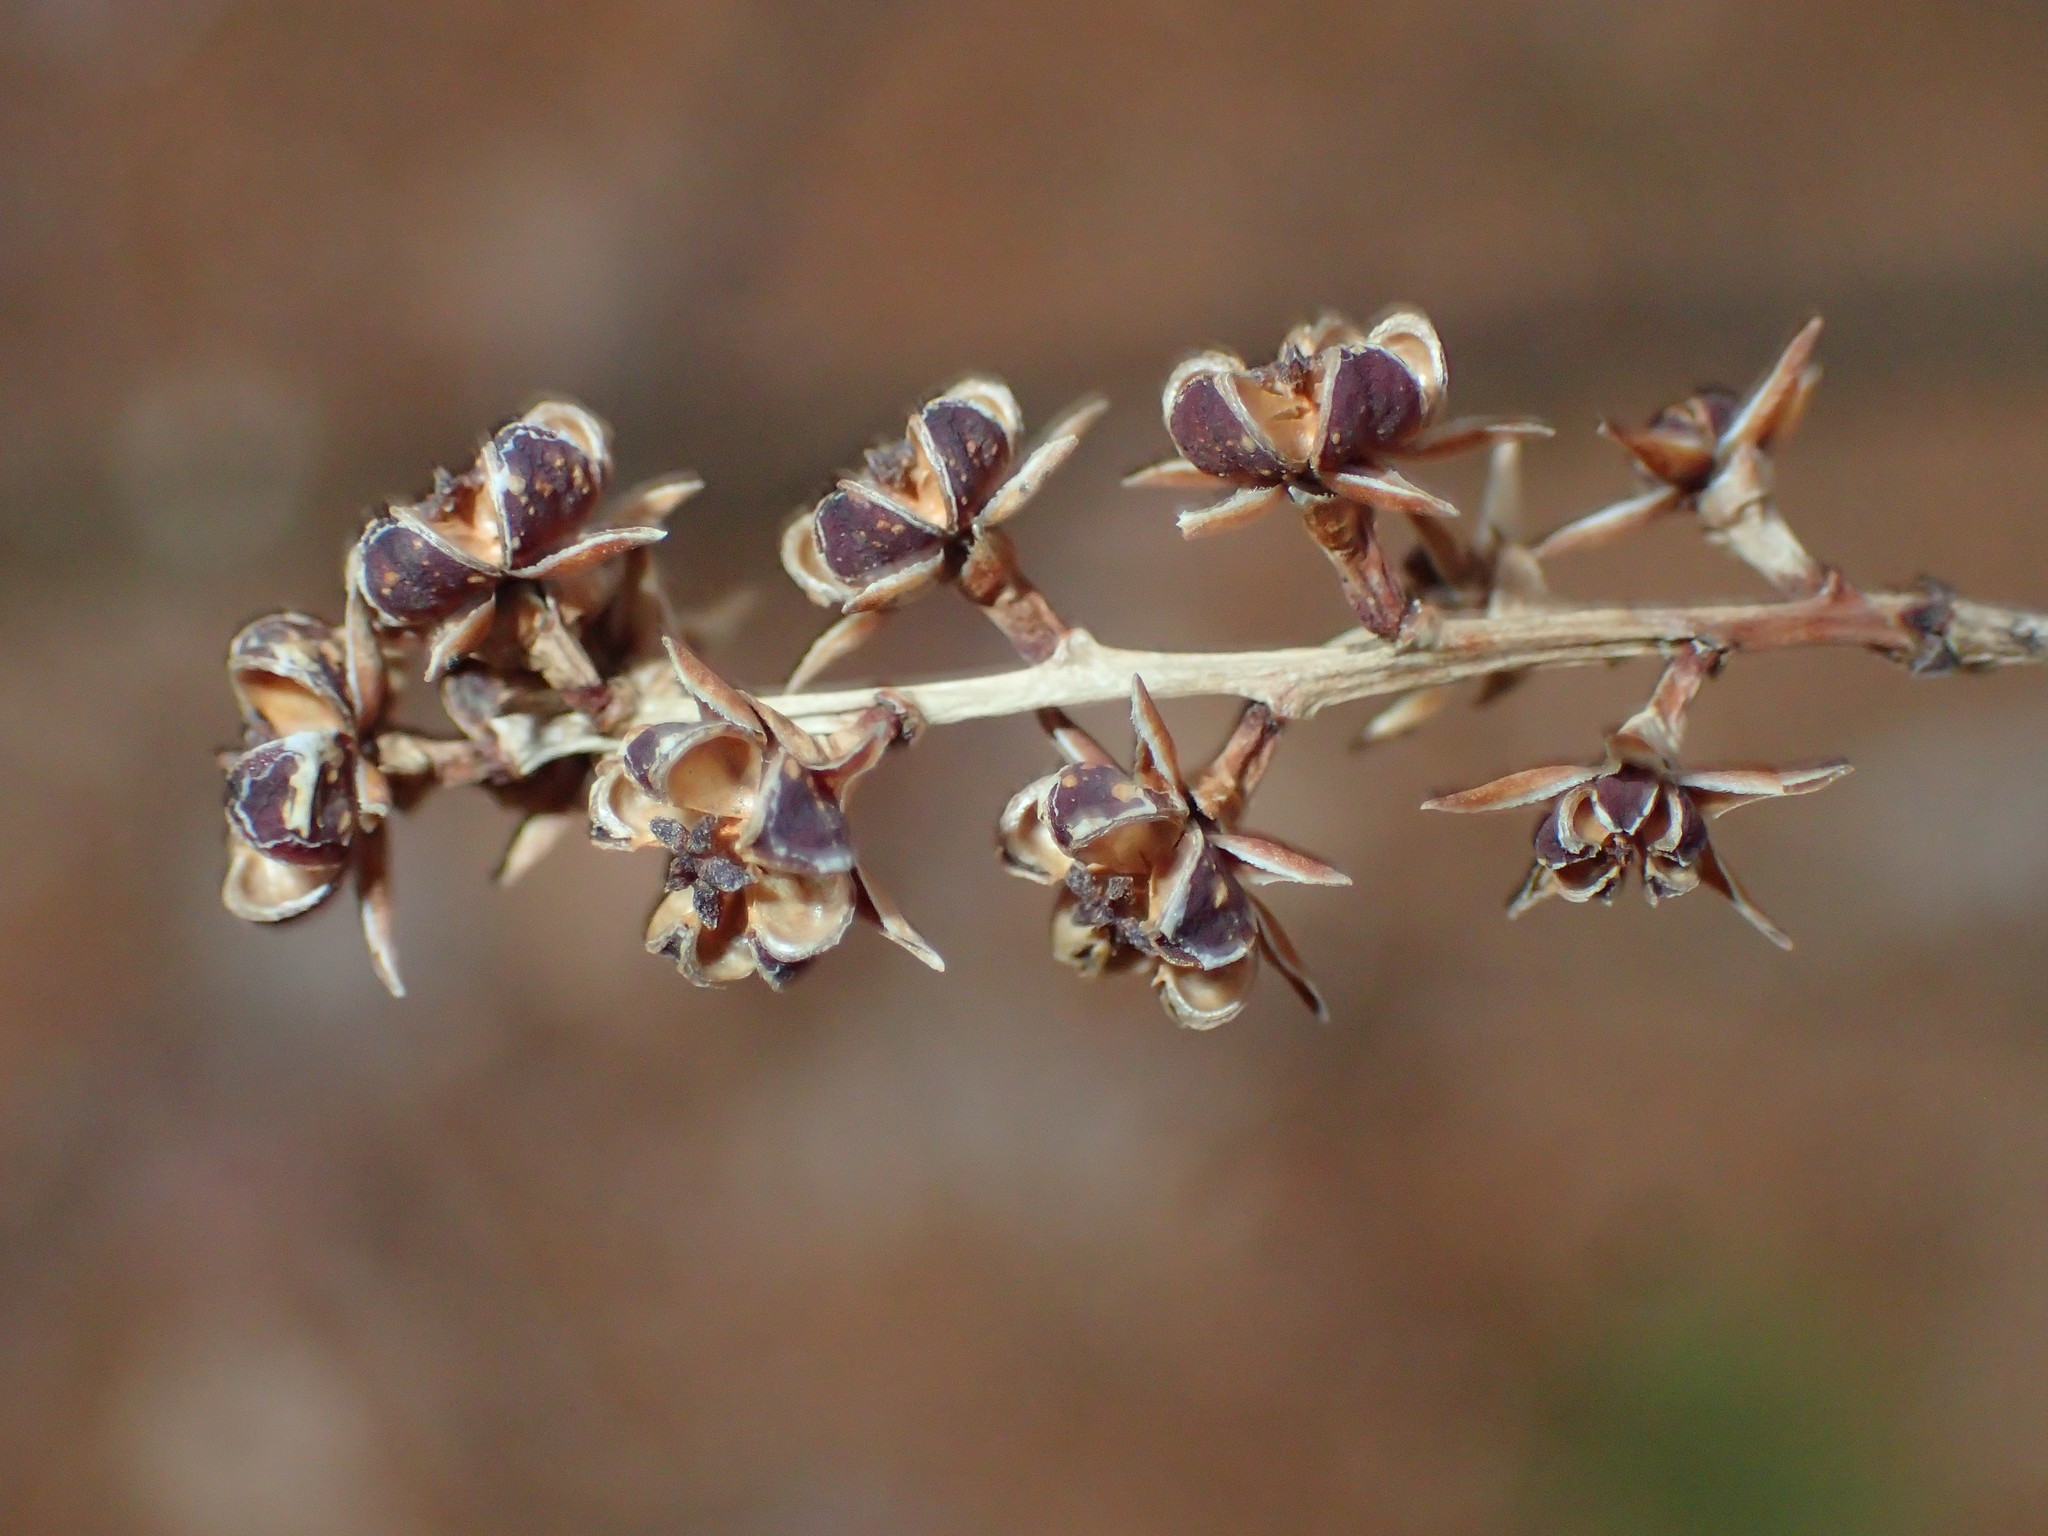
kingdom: Plantae
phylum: Tracheophyta
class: Magnoliopsida
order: Ericales
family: Ericaceae
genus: Eubotrys
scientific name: Eubotrys racemosa
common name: Fetterbush
